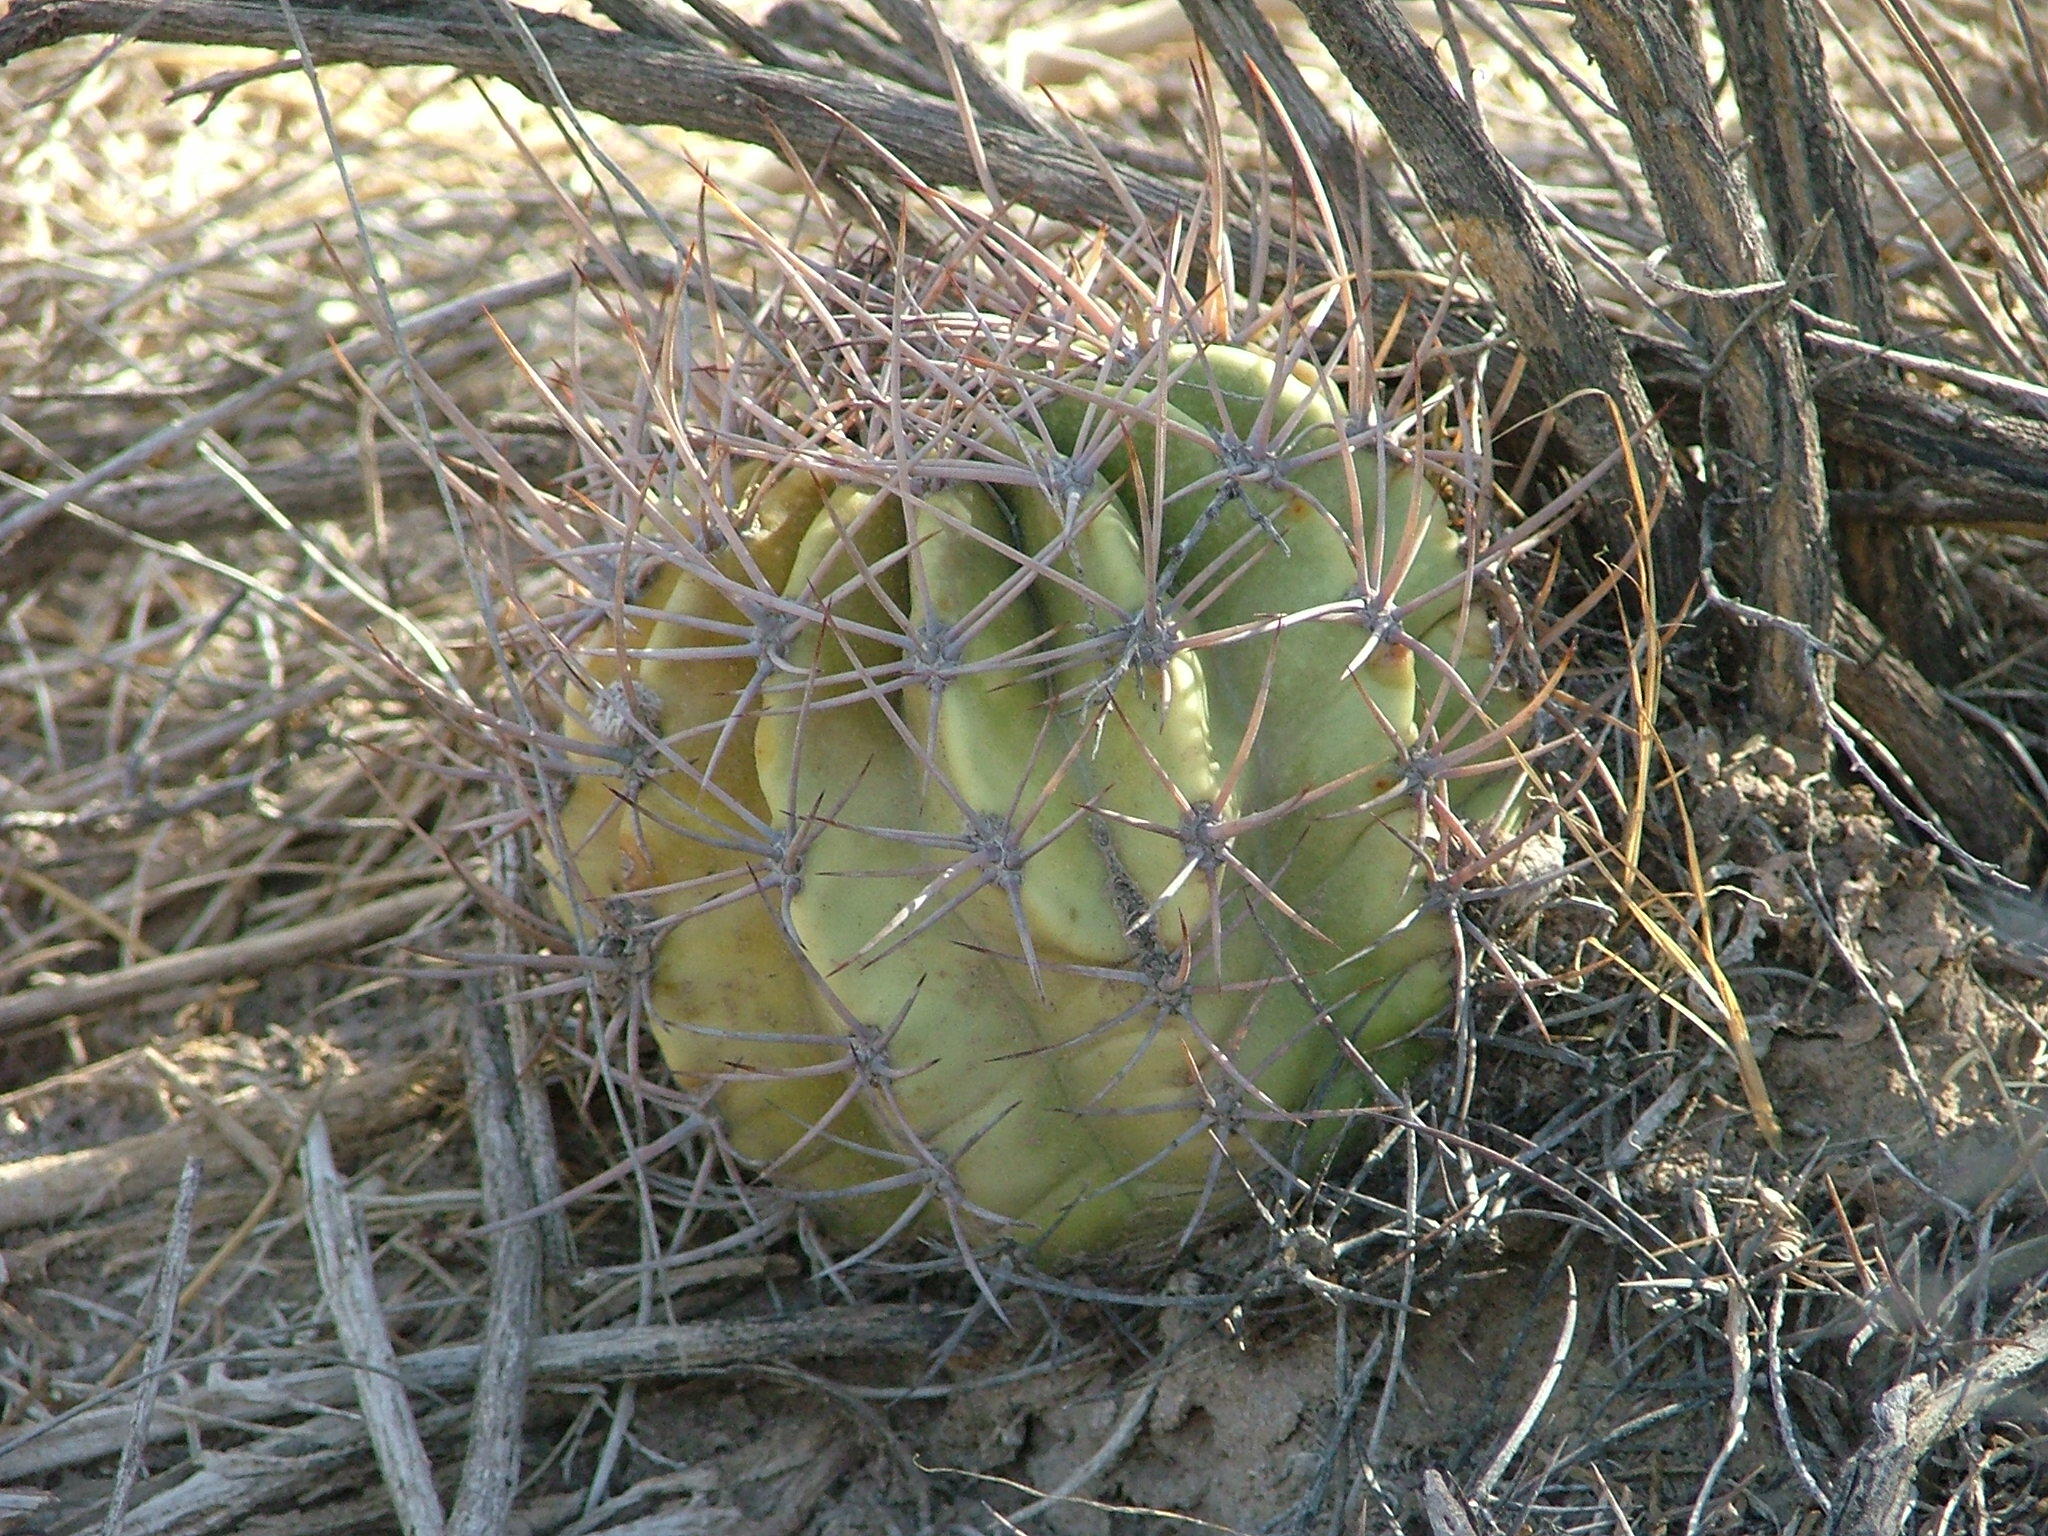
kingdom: Plantae
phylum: Tracheophyta
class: Magnoliopsida
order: Caryophyllales
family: Cactaceae
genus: Acanthocalycium
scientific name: Acanthocalycium leucanthum
